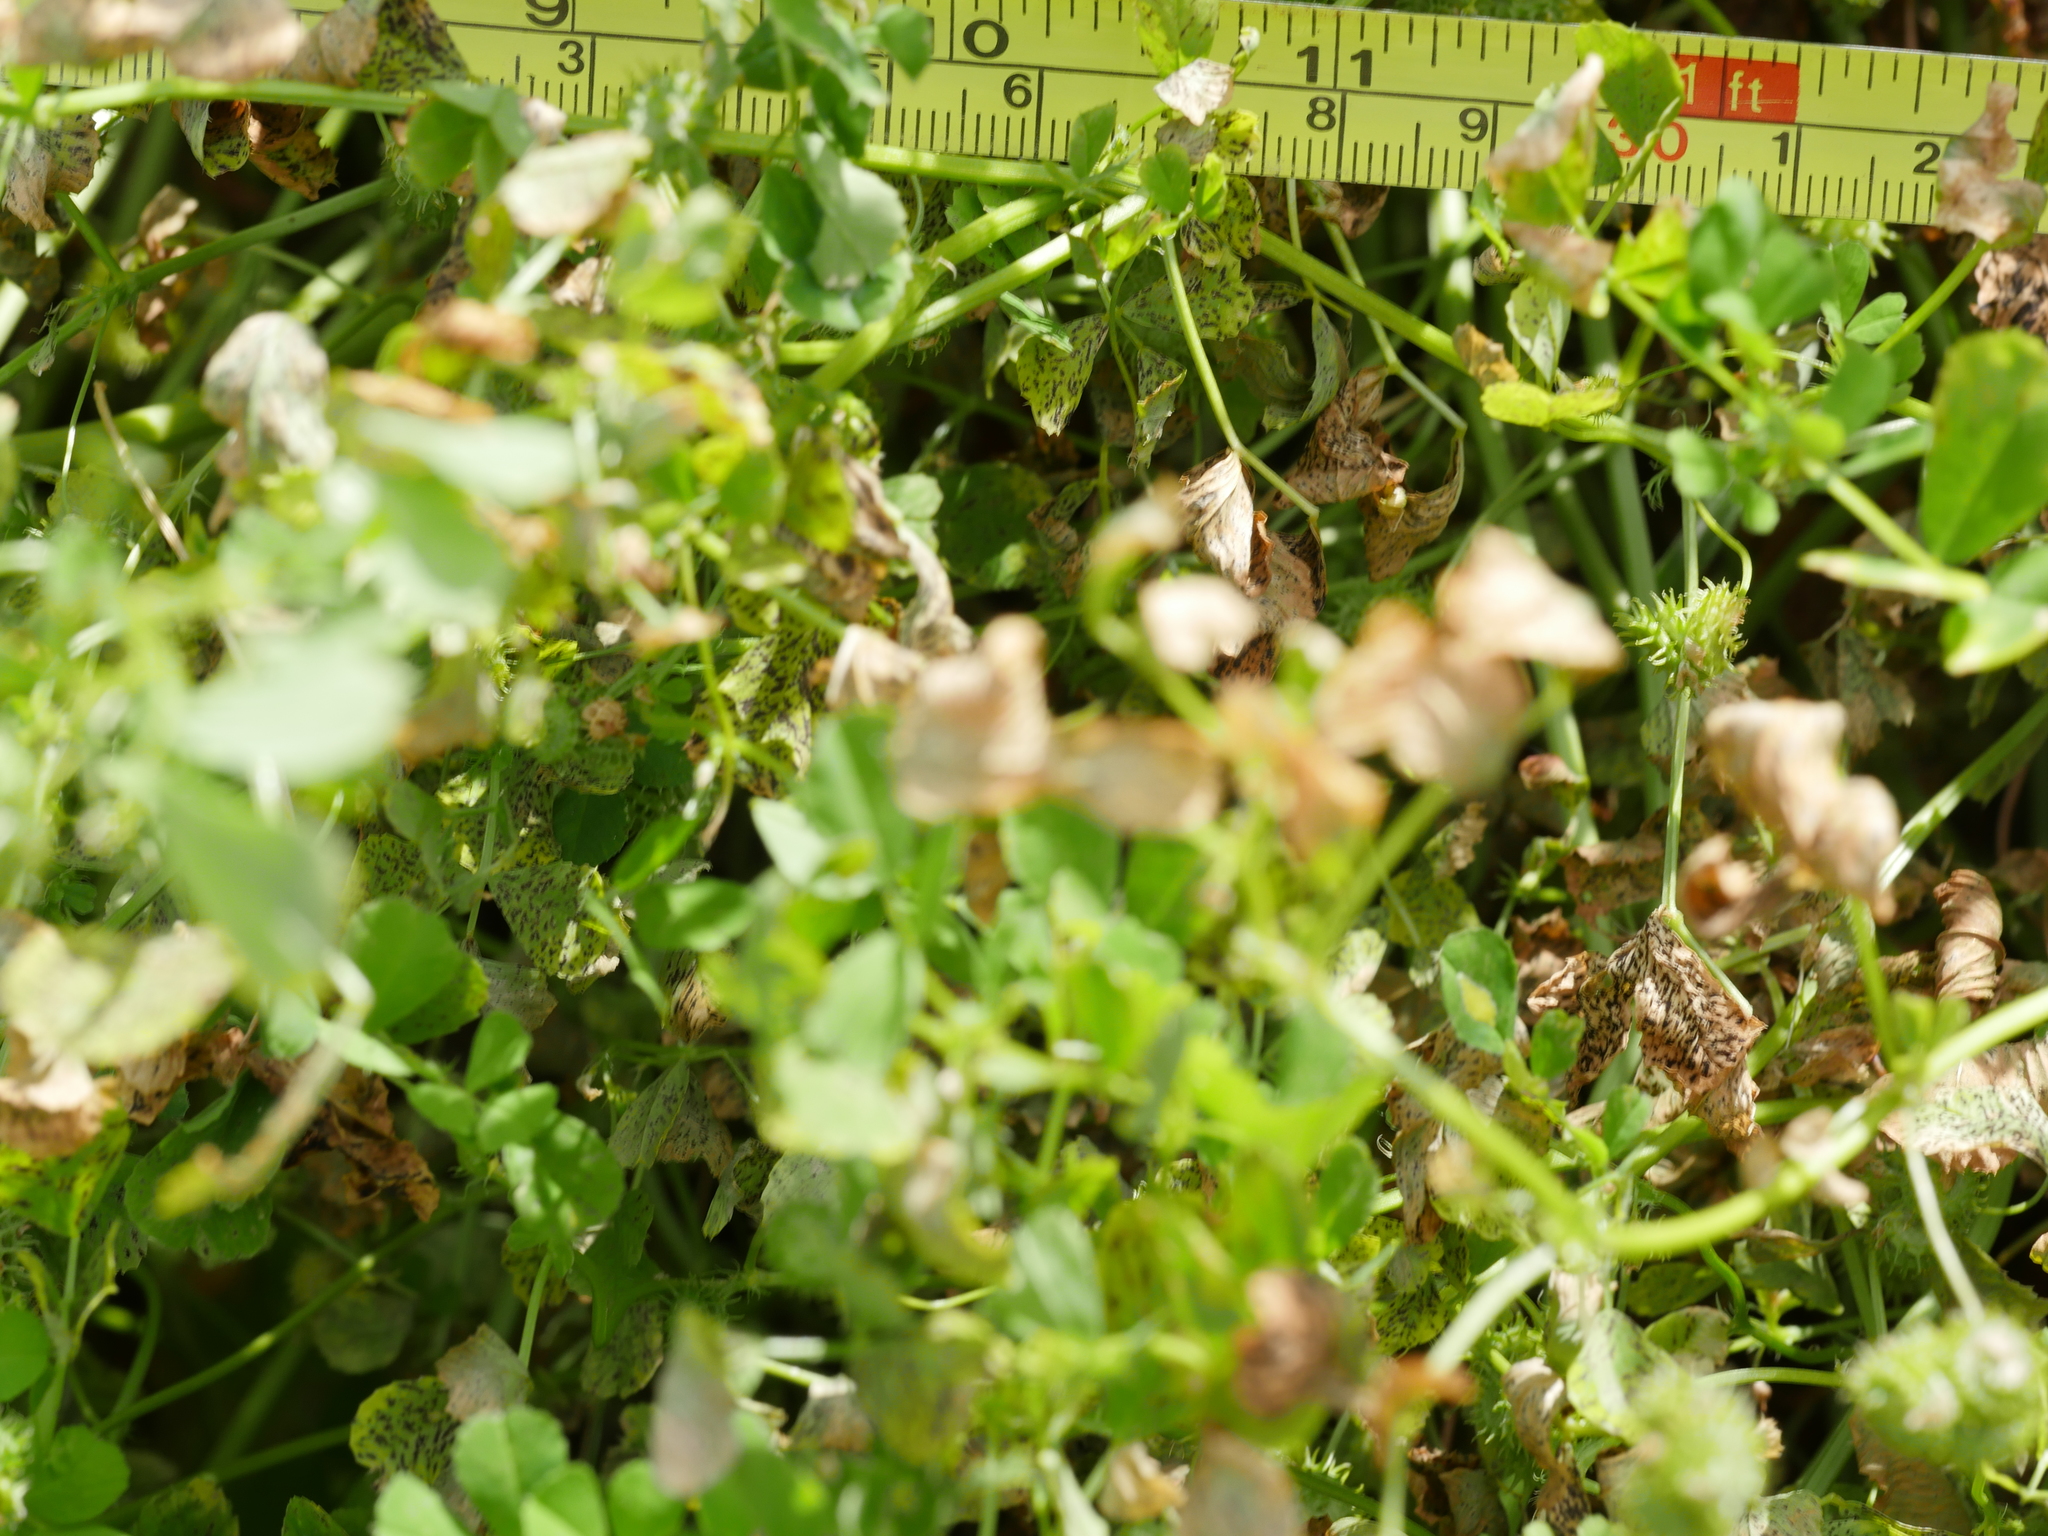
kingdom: Plantae
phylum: Tracheophyta
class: Magnoliopsida
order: Fabales
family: Fabaceae
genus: Medicago
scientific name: Medicago polymorpha
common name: Burclover
